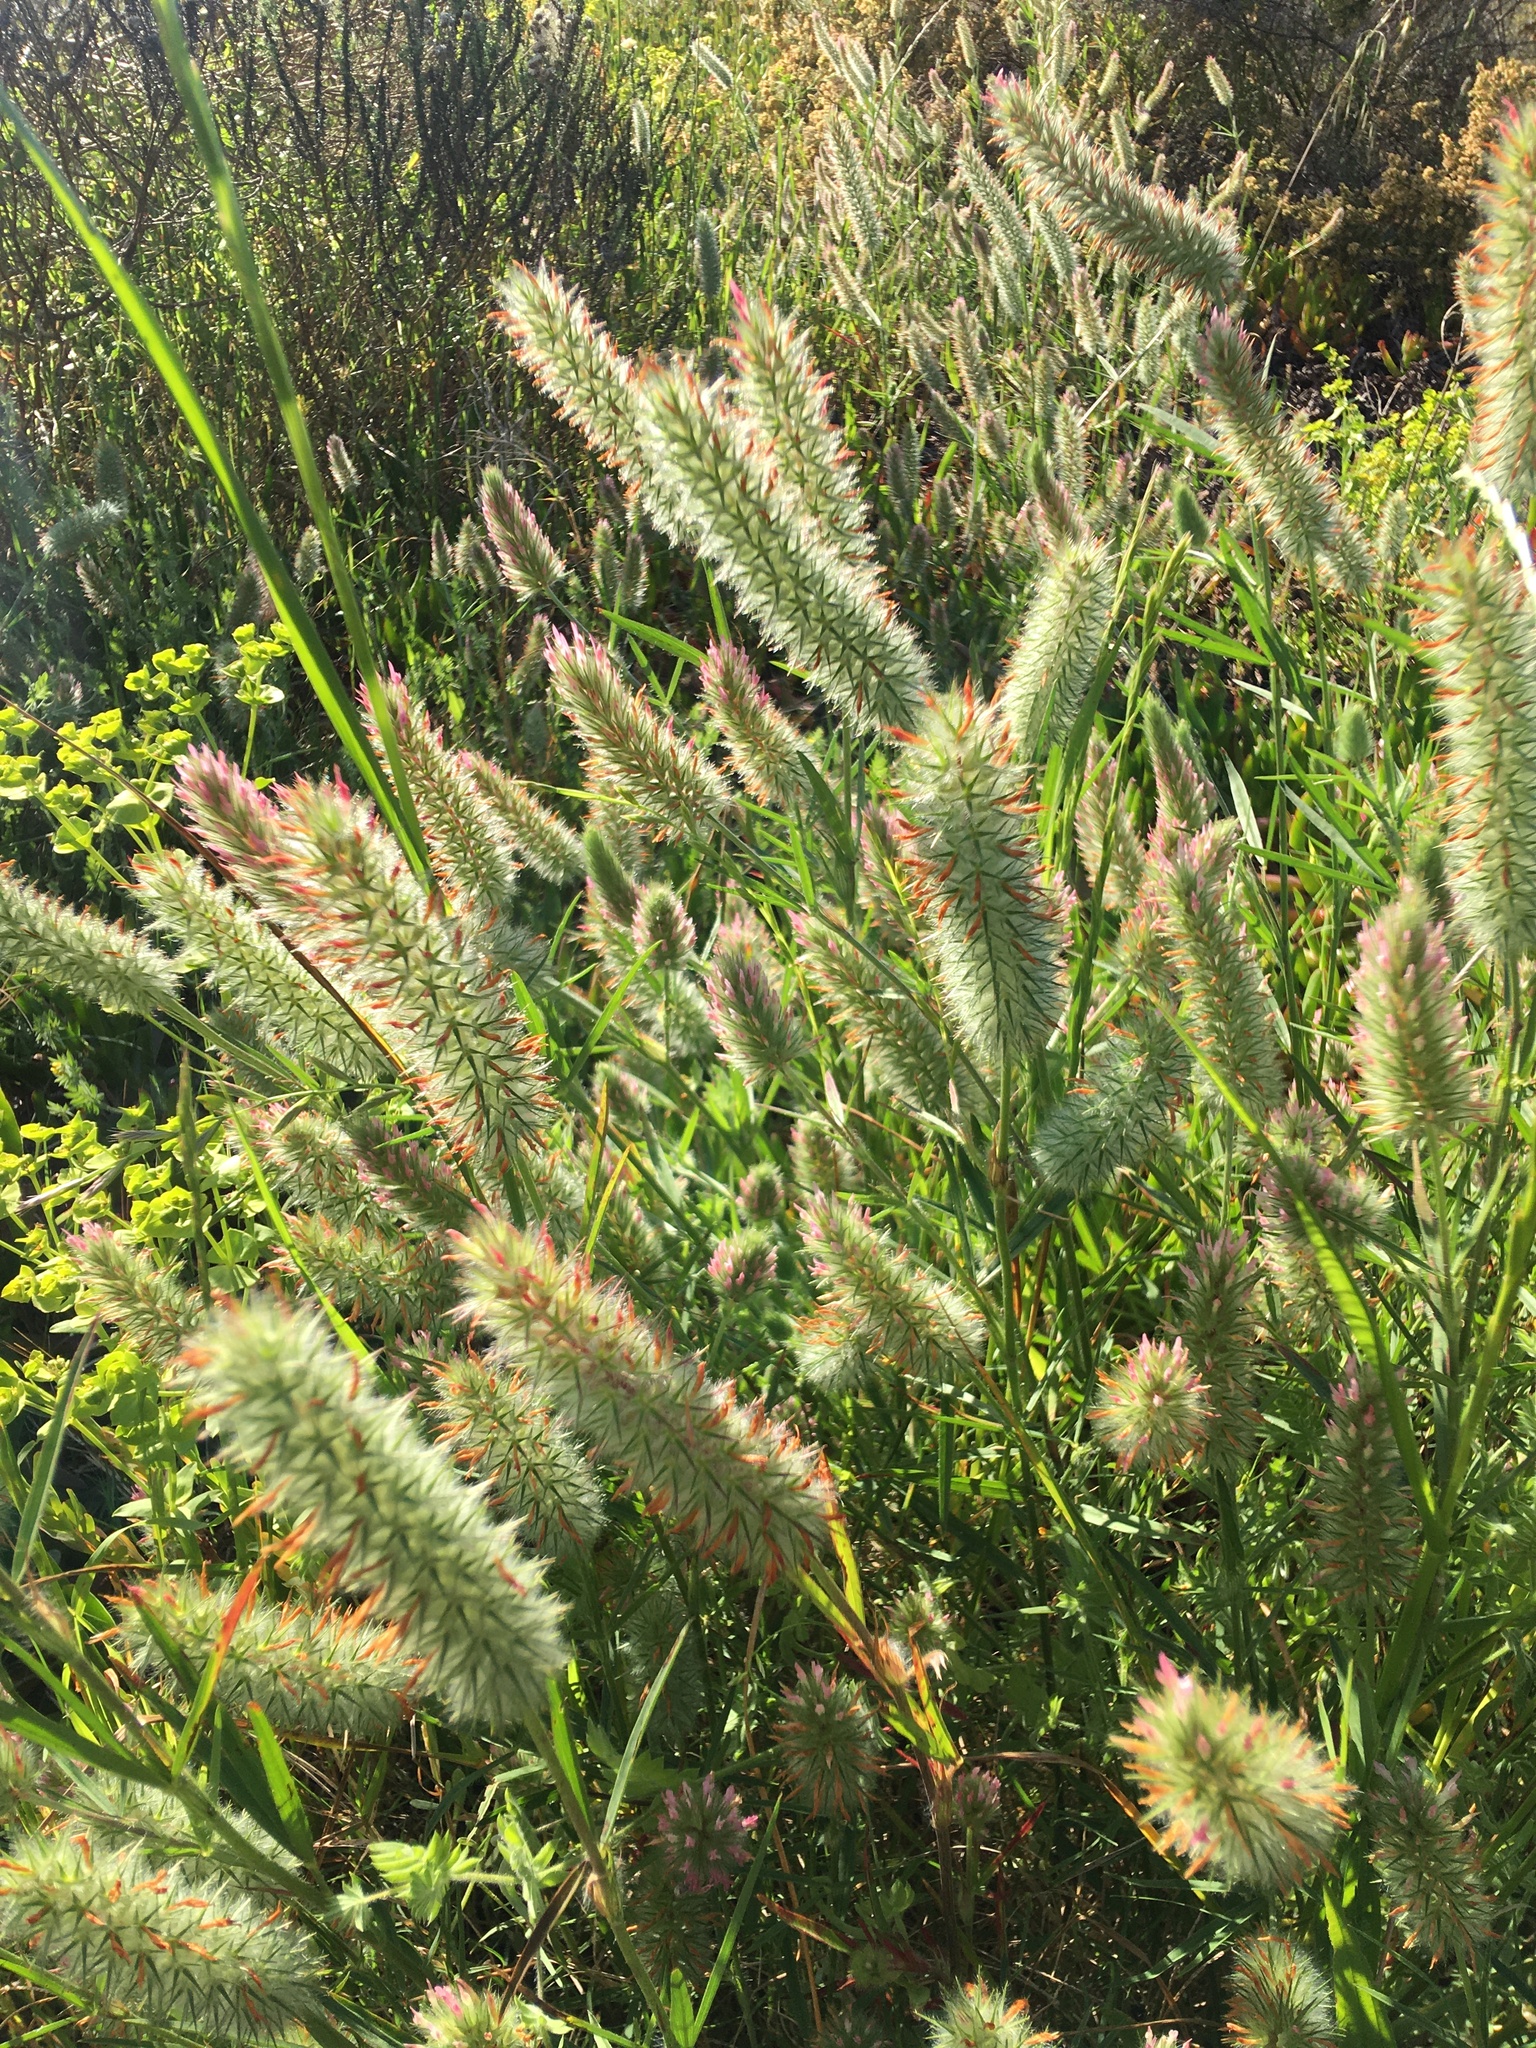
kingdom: Plantae
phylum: Tracheophyta
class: Magnoliopsida
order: Fabales
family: Fabaceae
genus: Trifolium
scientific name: Trifolium angustifolium
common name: Narrow clover
